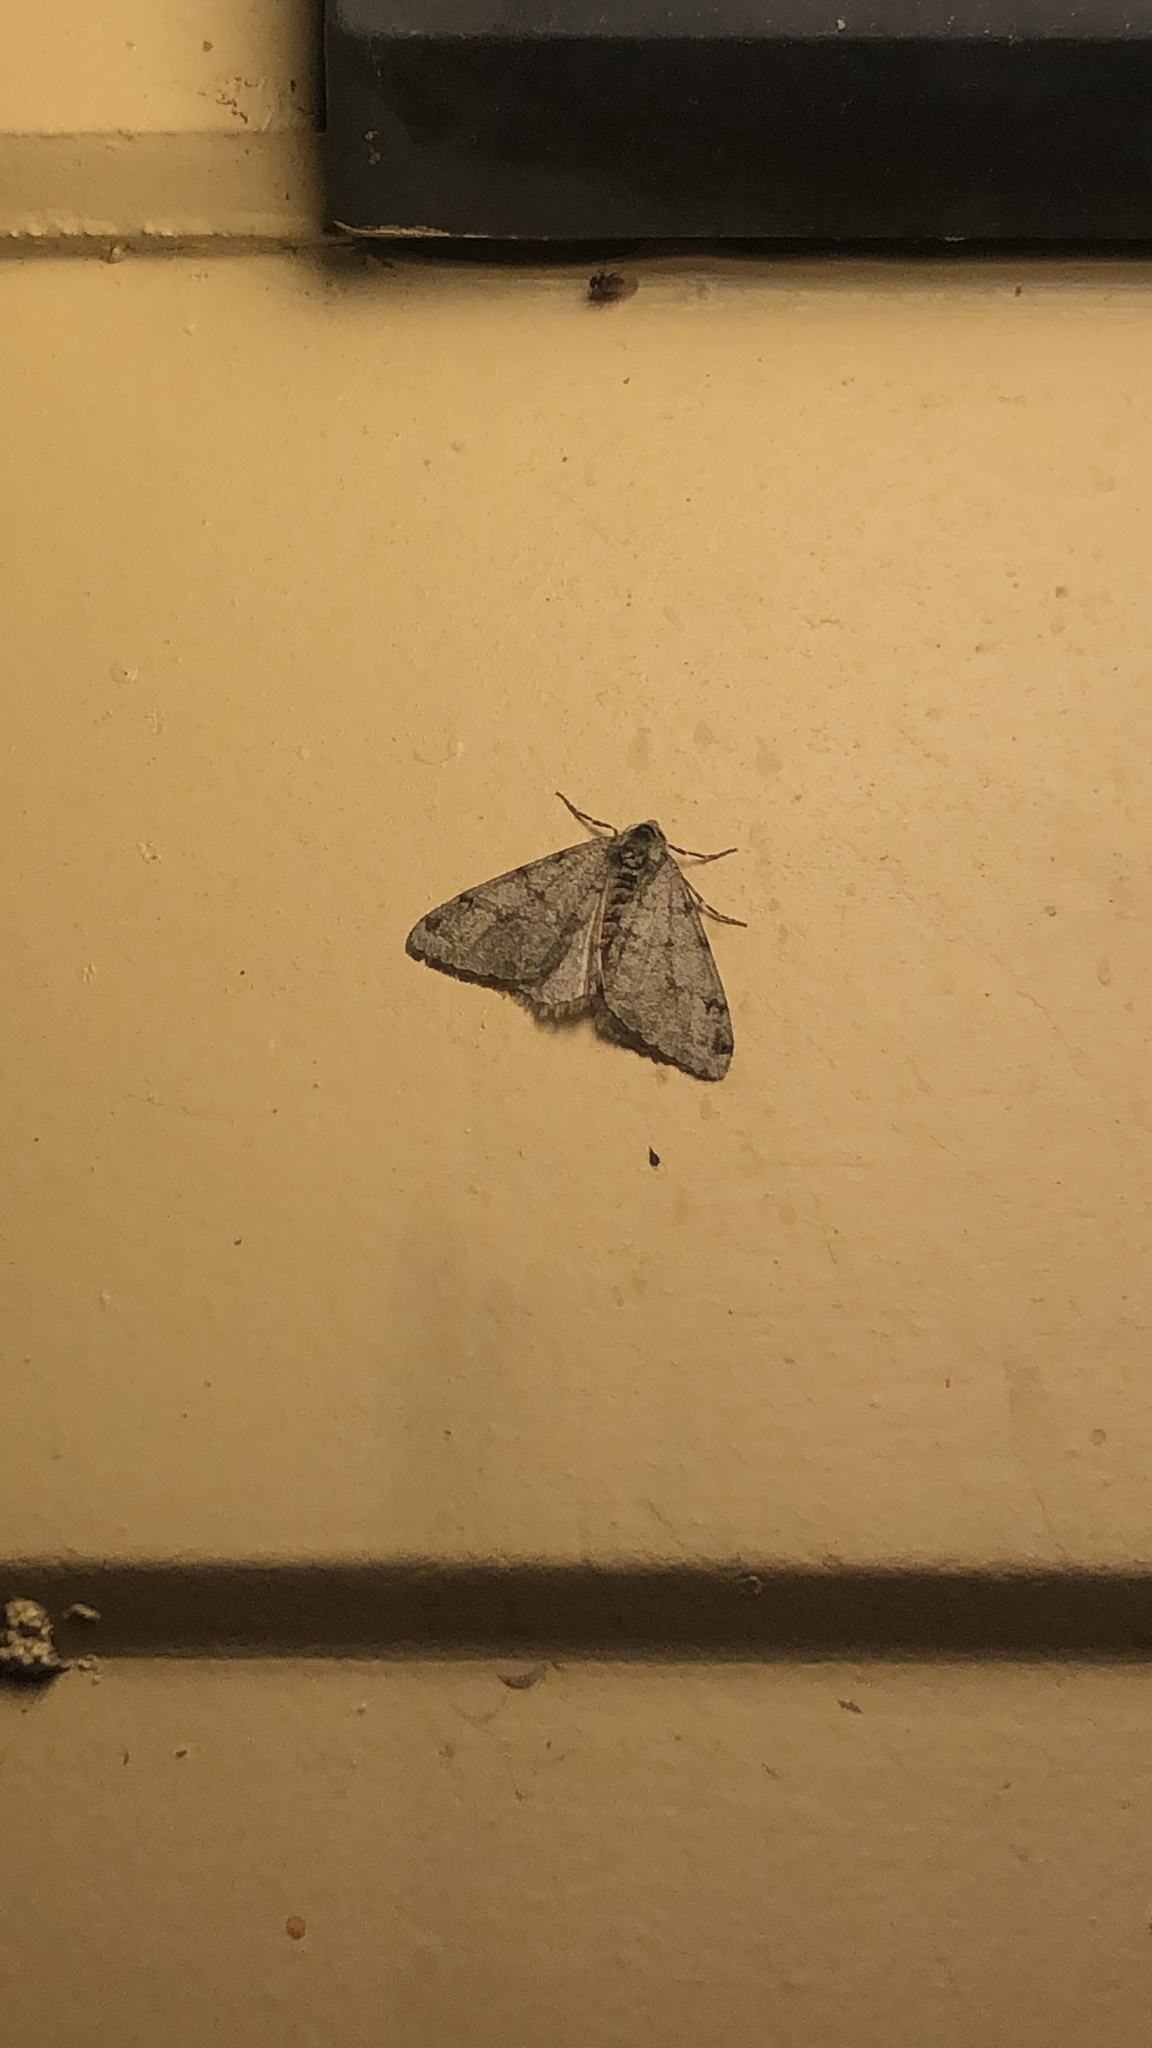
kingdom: Animalia
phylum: Arthropoda
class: Insecta
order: Lepidoptera
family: Geometridae
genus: Paleacrita
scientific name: Paleacrita vernata
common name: Spring cankerworm
